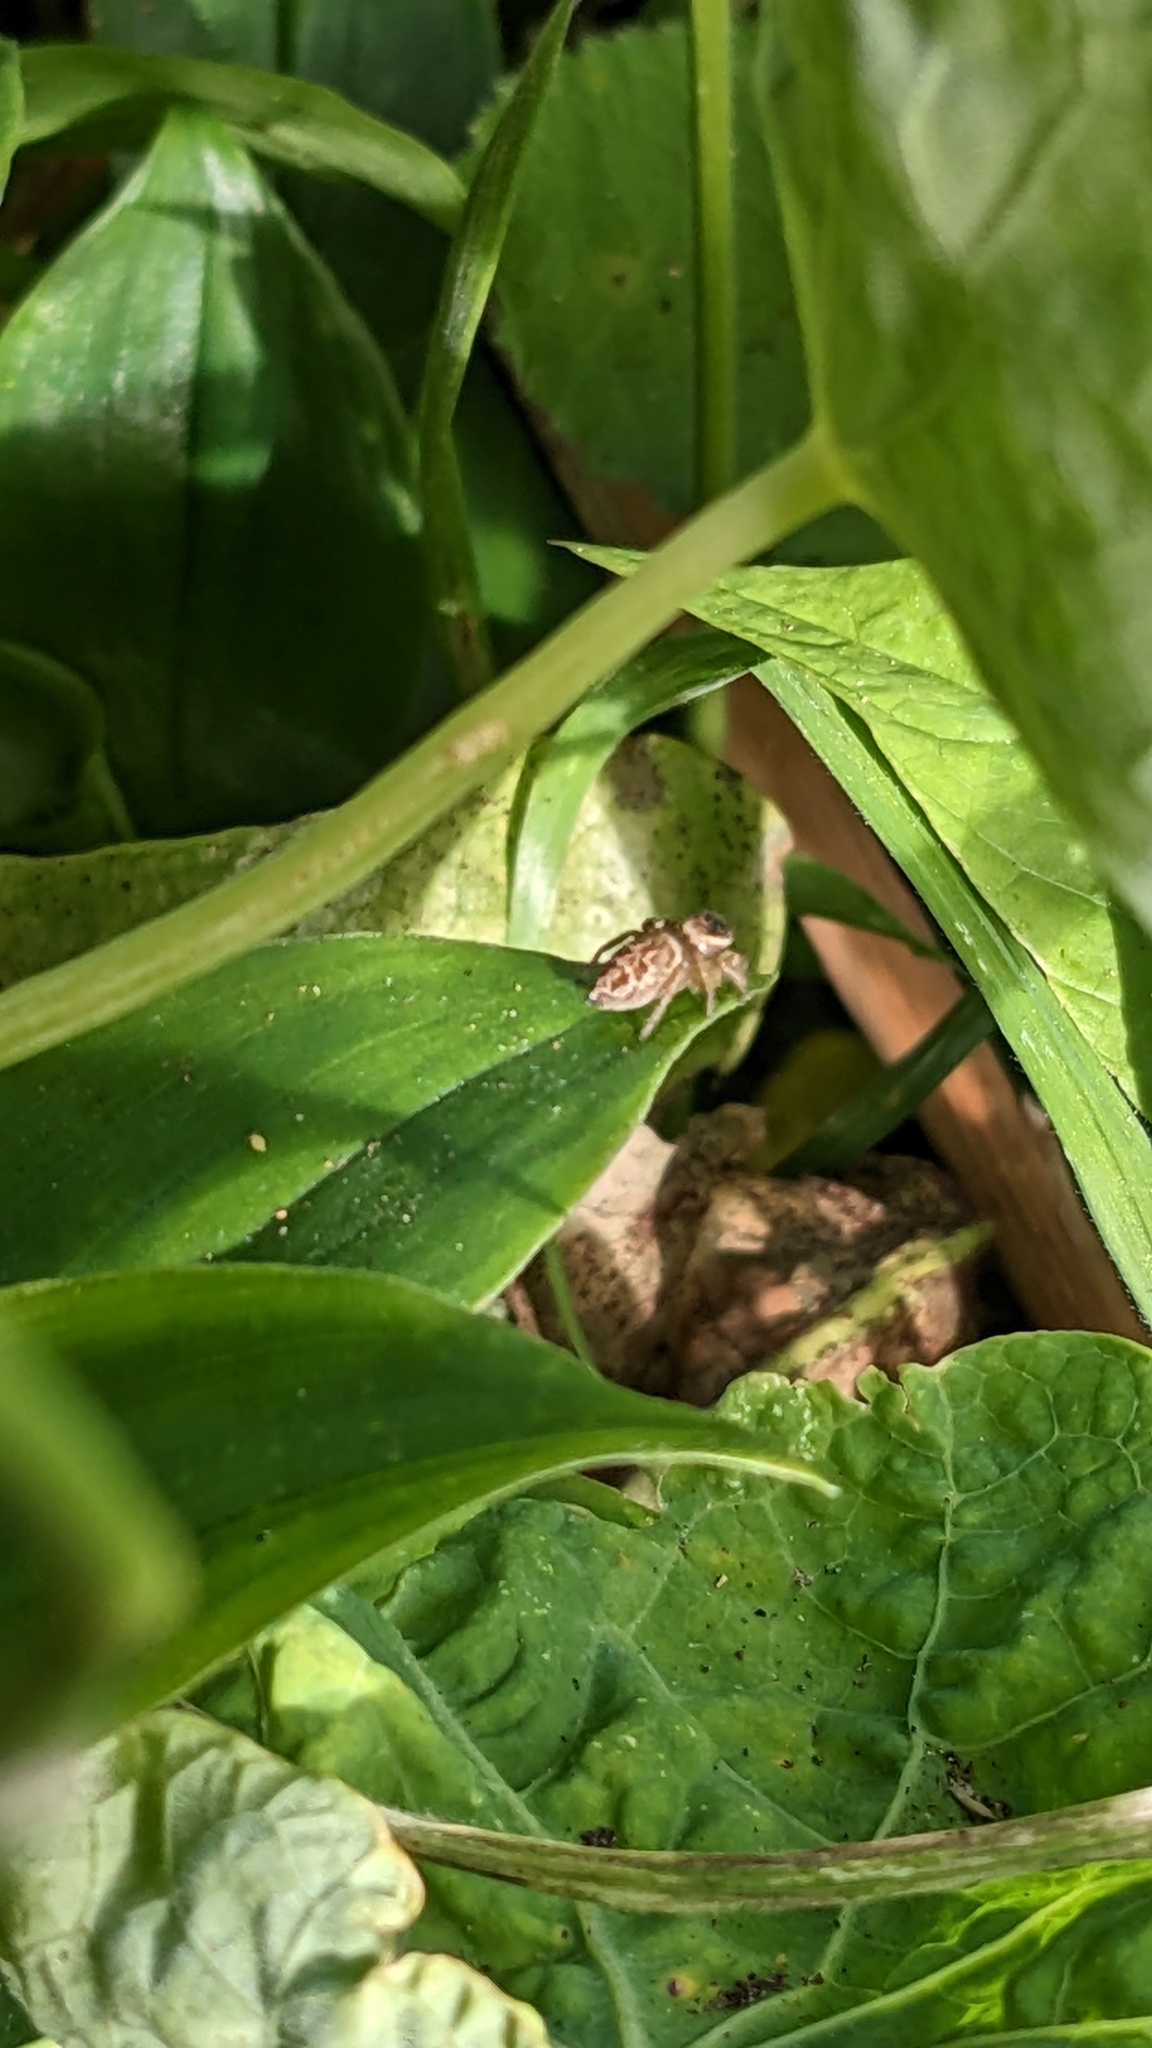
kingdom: Animalia
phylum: Arthropoda
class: Arachnida
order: Araneae
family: Salticidae
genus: Maratus
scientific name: Maratus griseus
